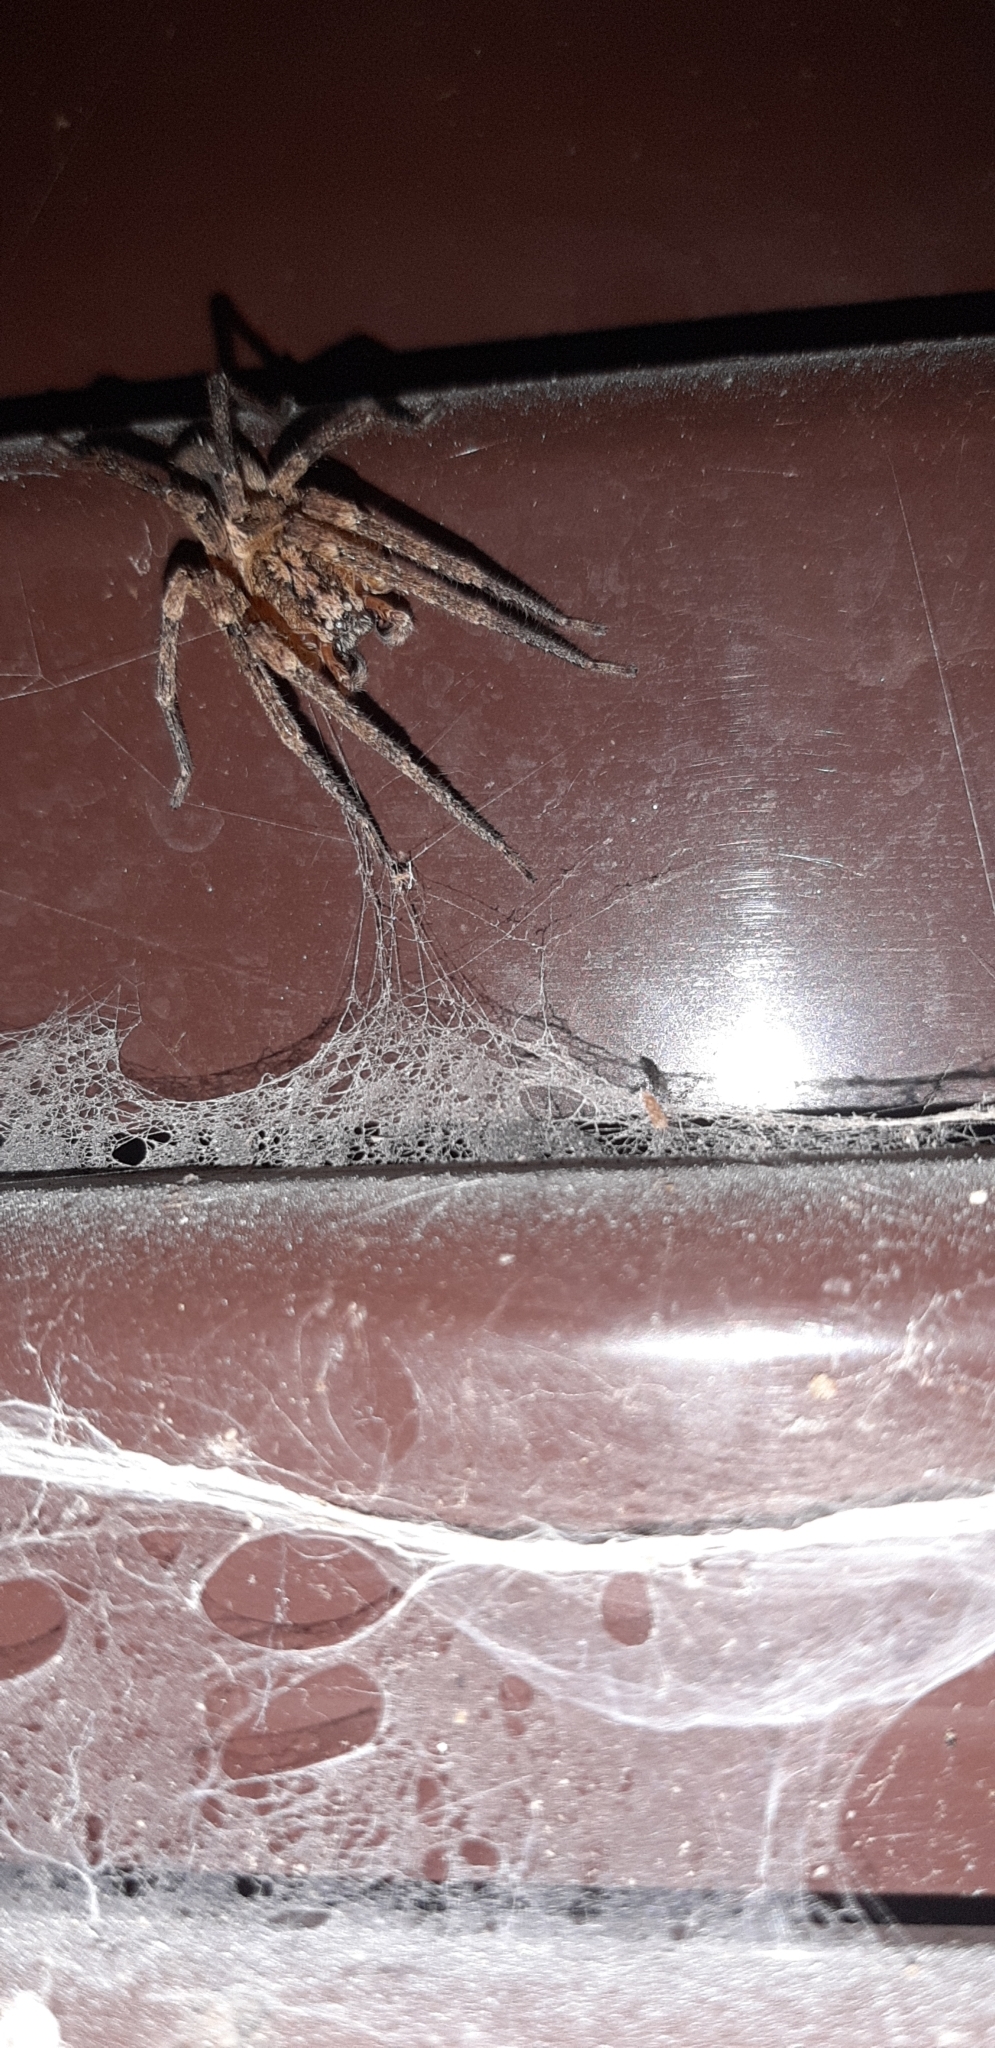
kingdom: Animalia
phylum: Arthropoda
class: Arachnida
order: Araneae
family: Zoropsidae
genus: Zoropsis
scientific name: Zoropsis spinimana
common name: Zoropsid spider
